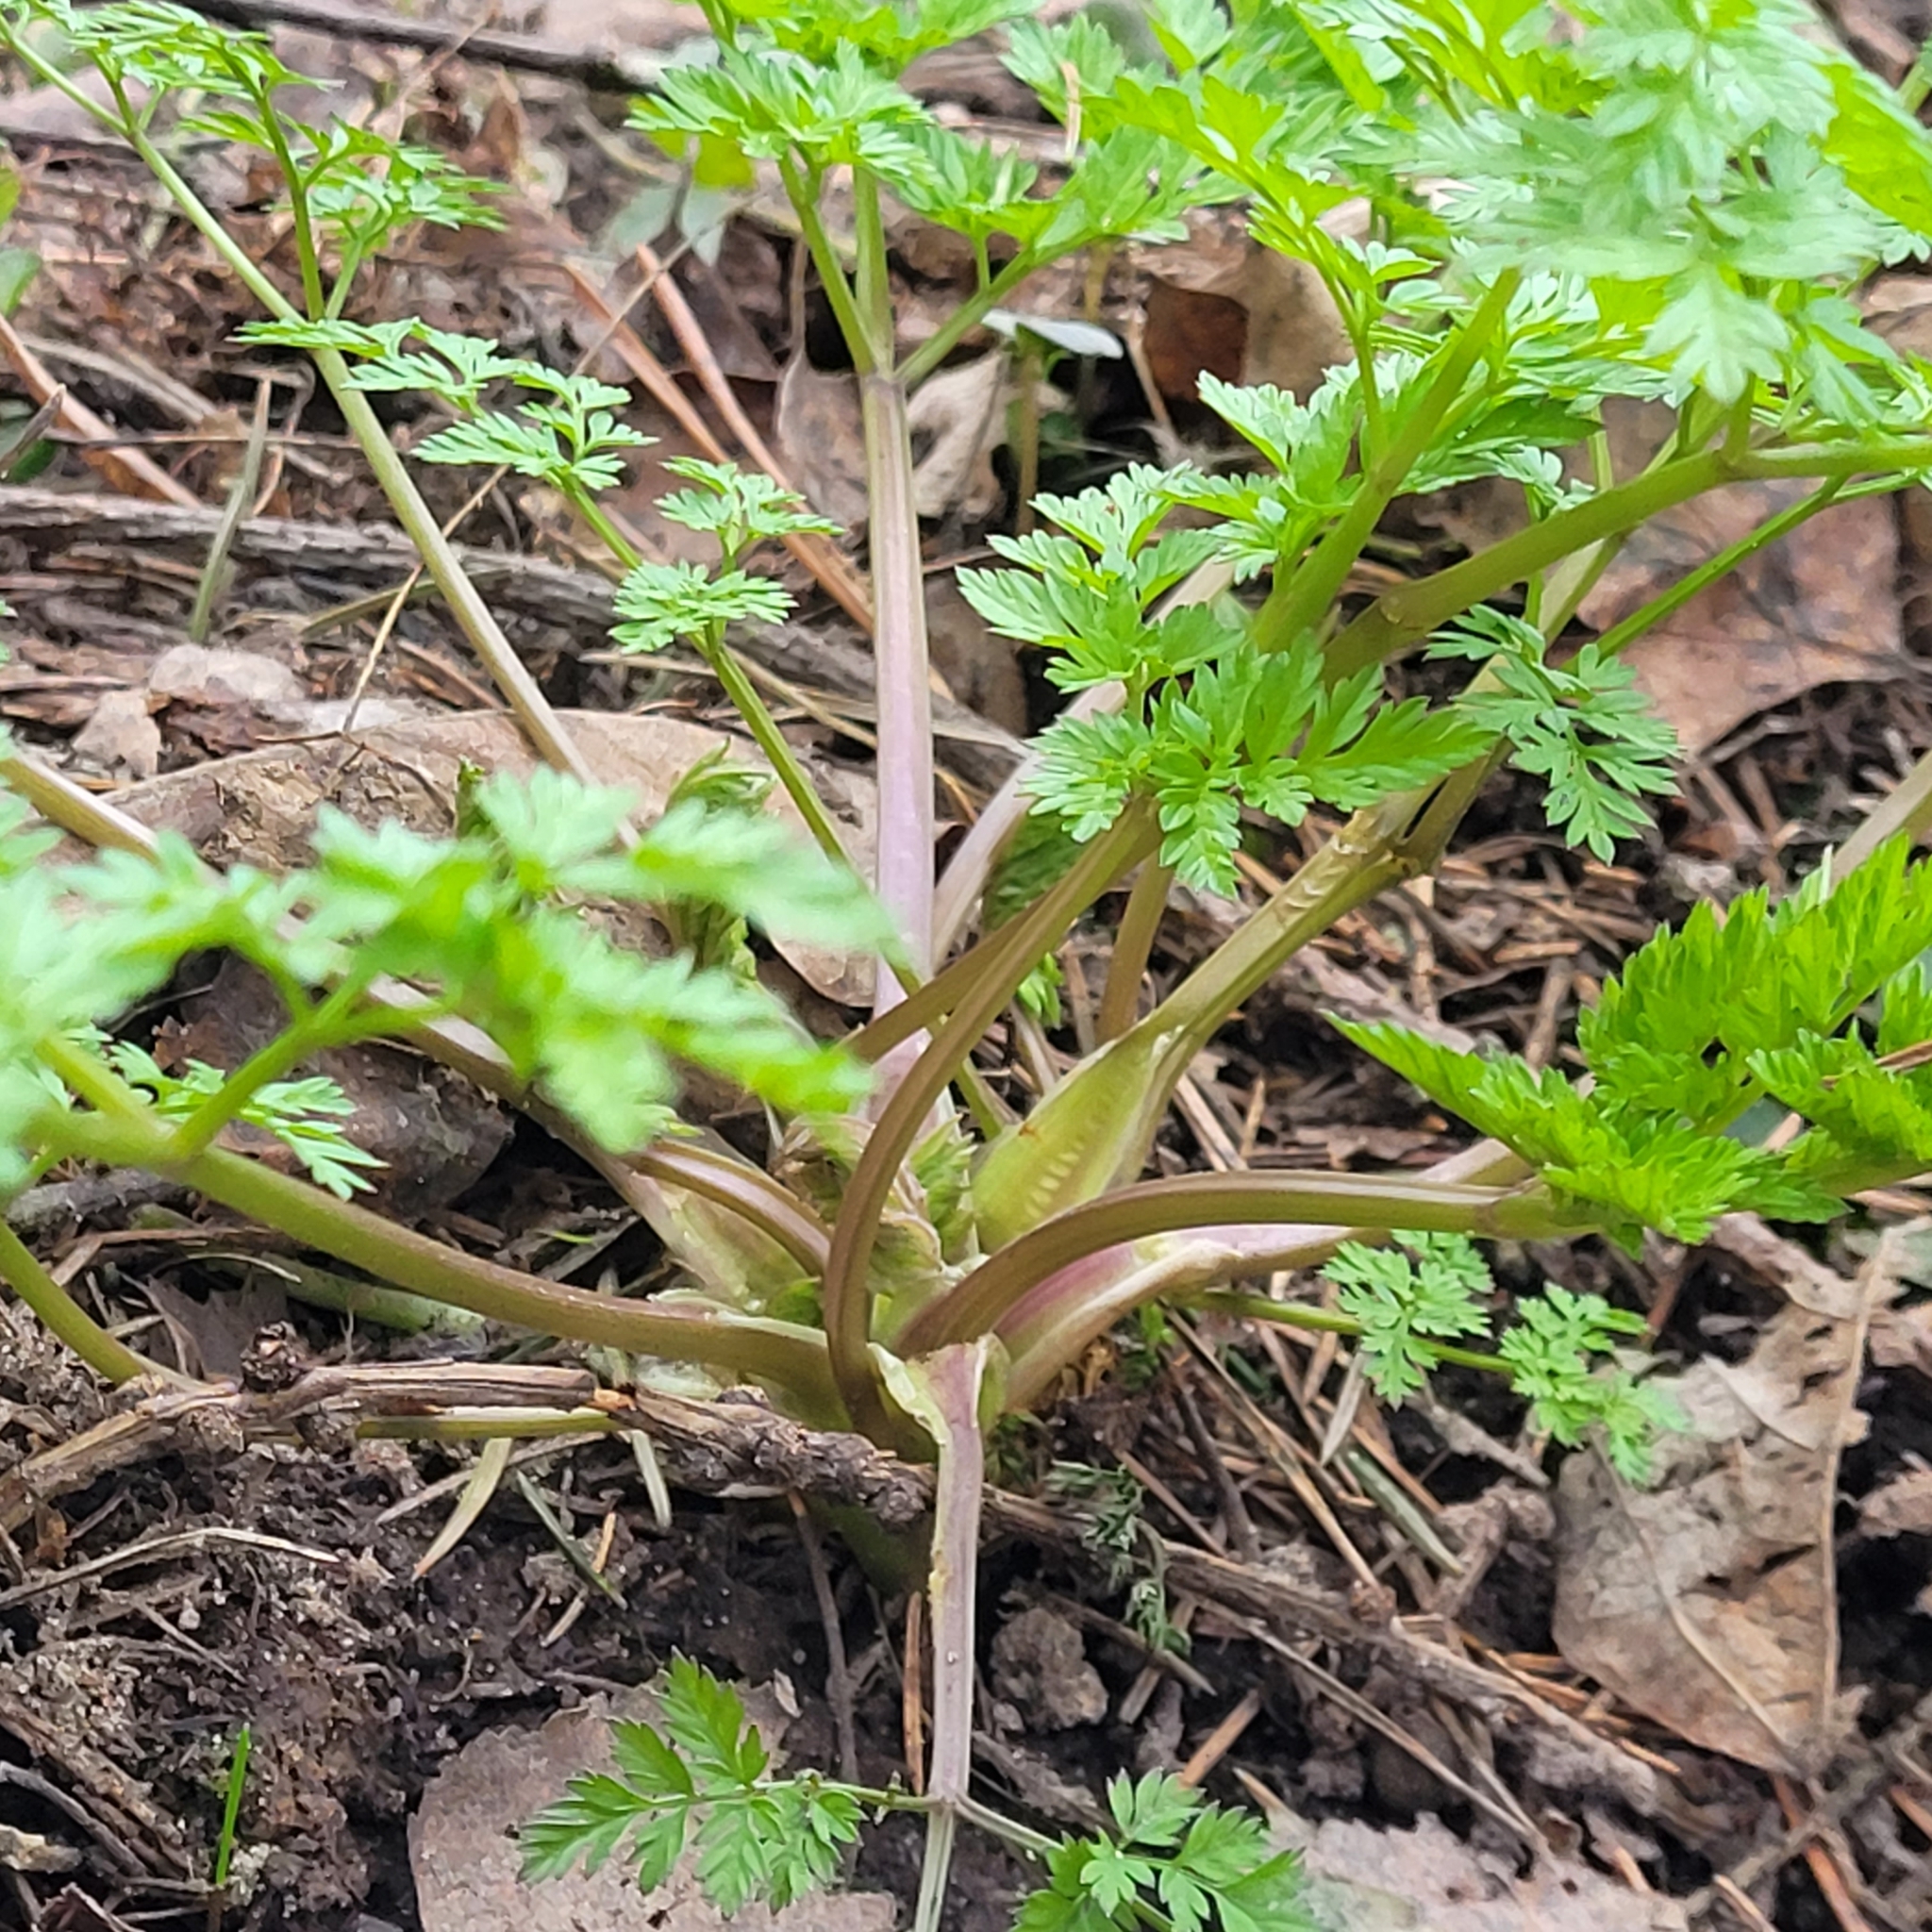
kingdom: Plantae
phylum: Tracheophyta
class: Magnoliopsida
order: Apiales
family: Apiaceae
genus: Anthriscus
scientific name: Anthriscus sylvestris
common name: Cow parsley
